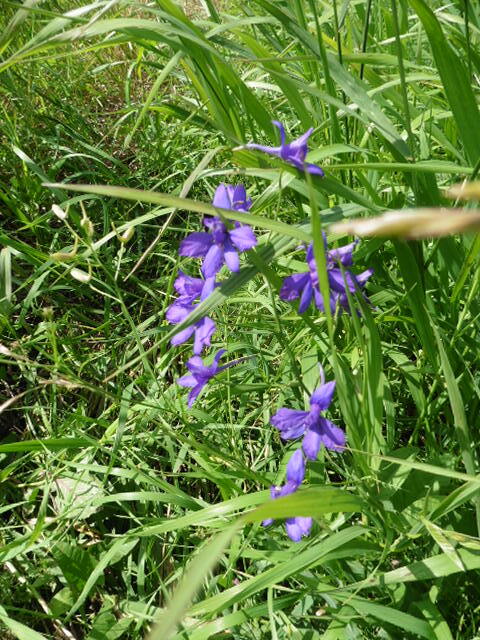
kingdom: Plantae
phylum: Tracheophyta
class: Magnoliopsida
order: Ranunculales
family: Ranunculaceae
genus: Delphinium
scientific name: Delphinium consolida
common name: Branching larkspur
